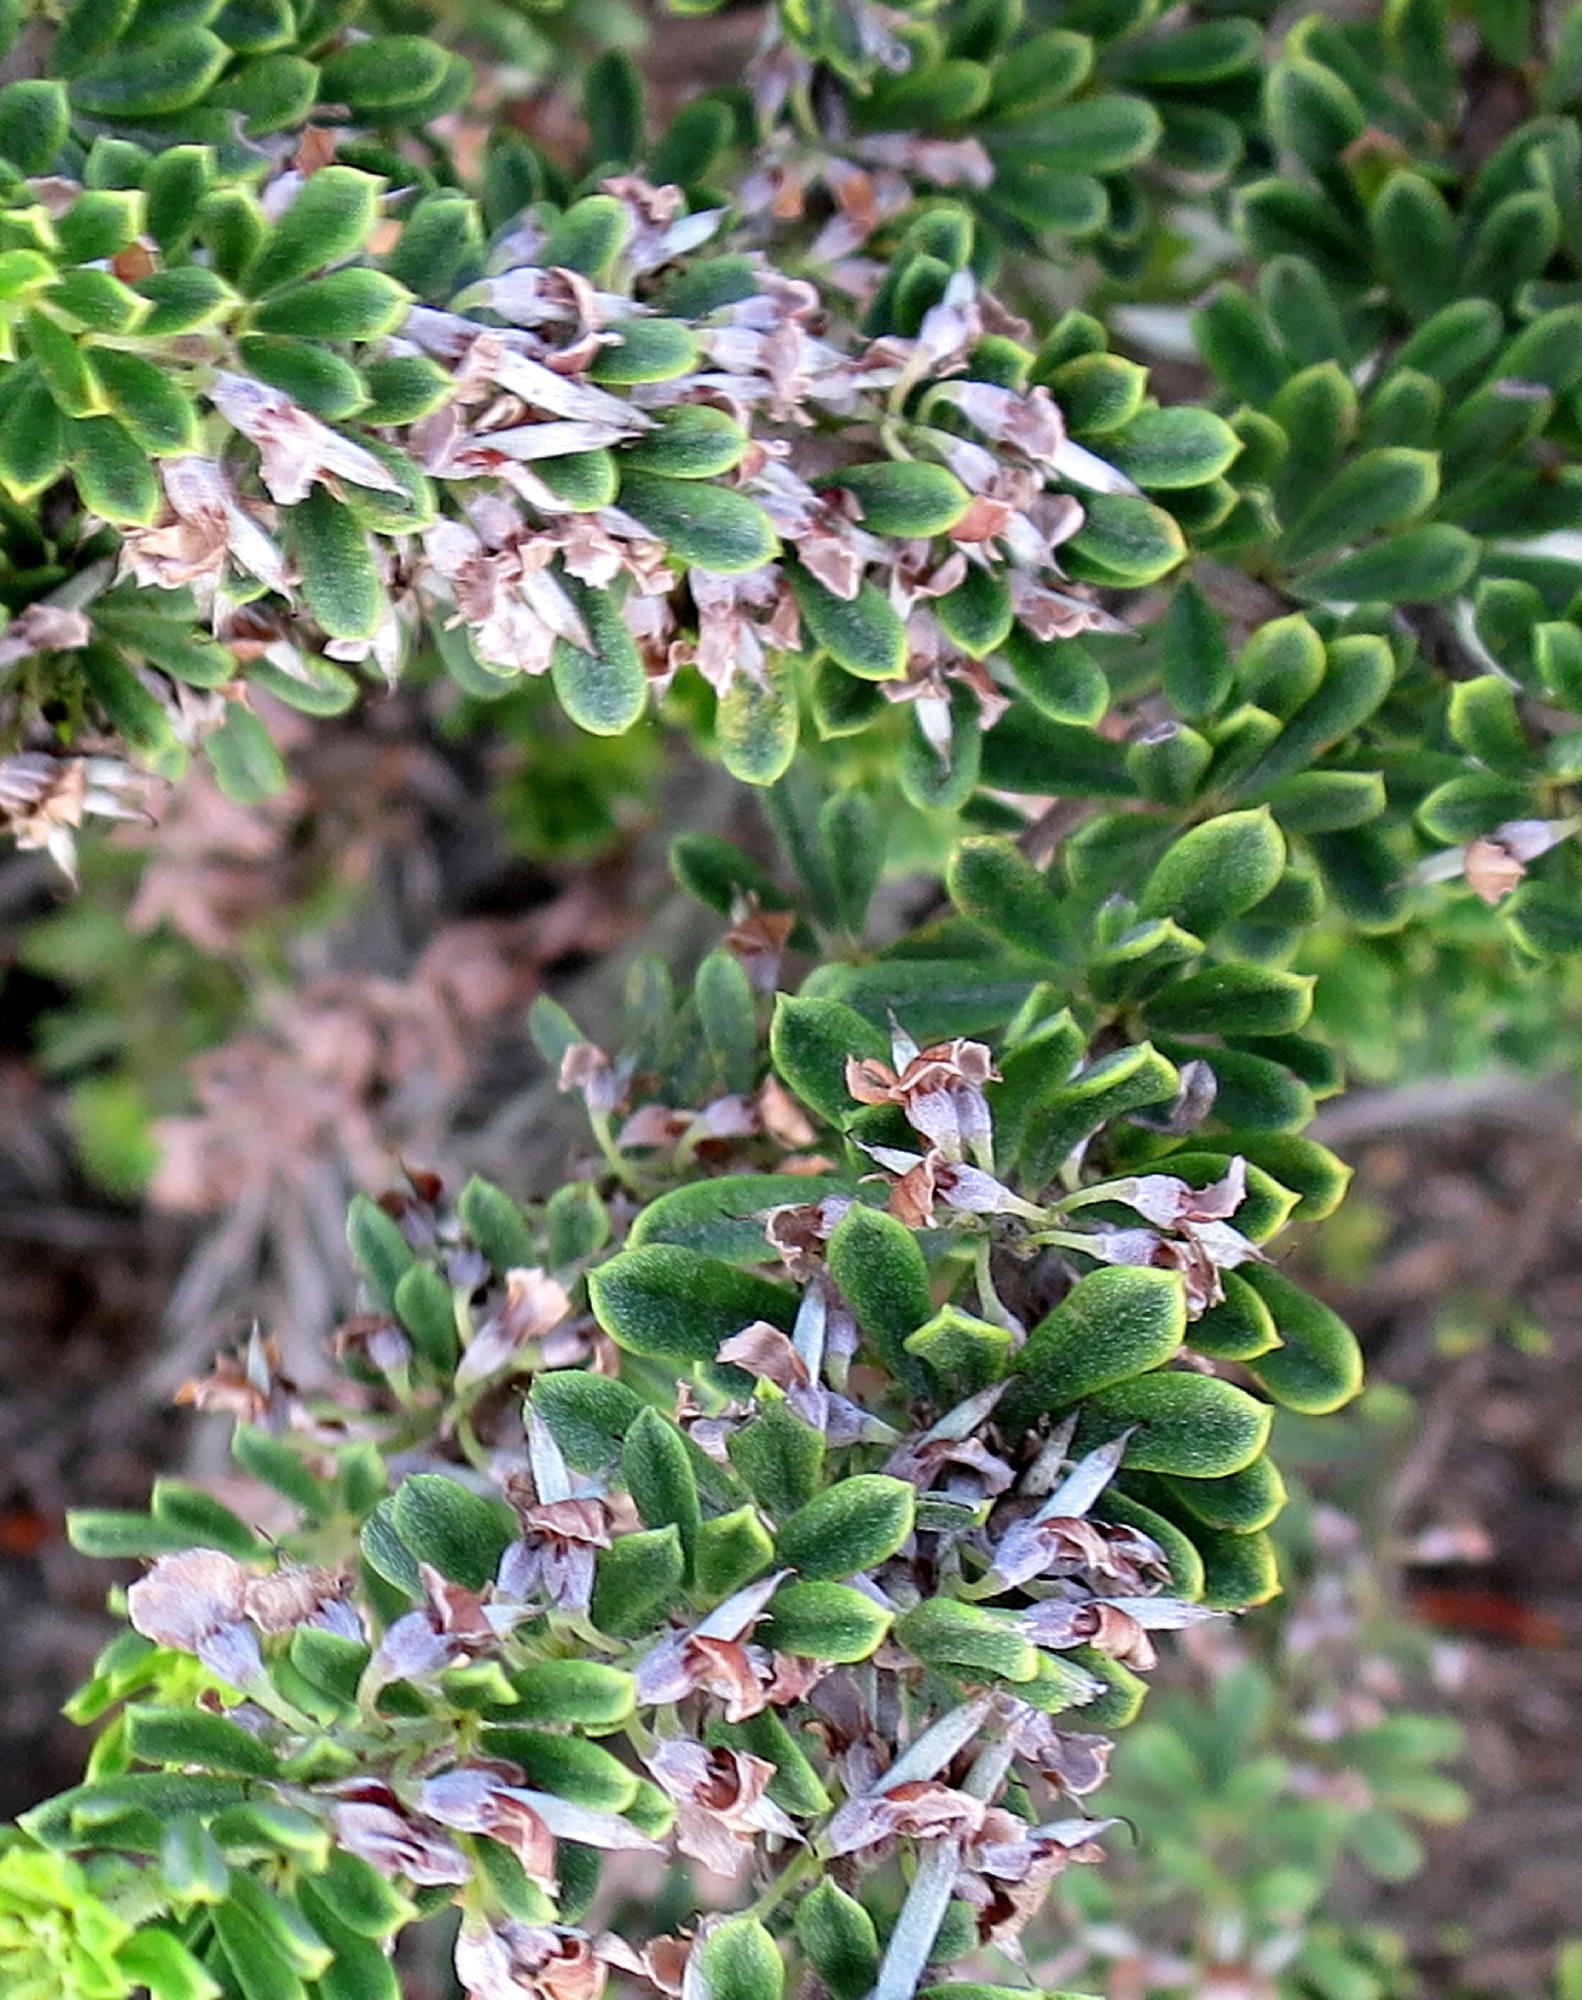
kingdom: Plantae
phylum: Tracheophyta
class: Magnoliopsida
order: Fabales
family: Fabaceae
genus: Indigofera
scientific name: Indigofera flabellata
